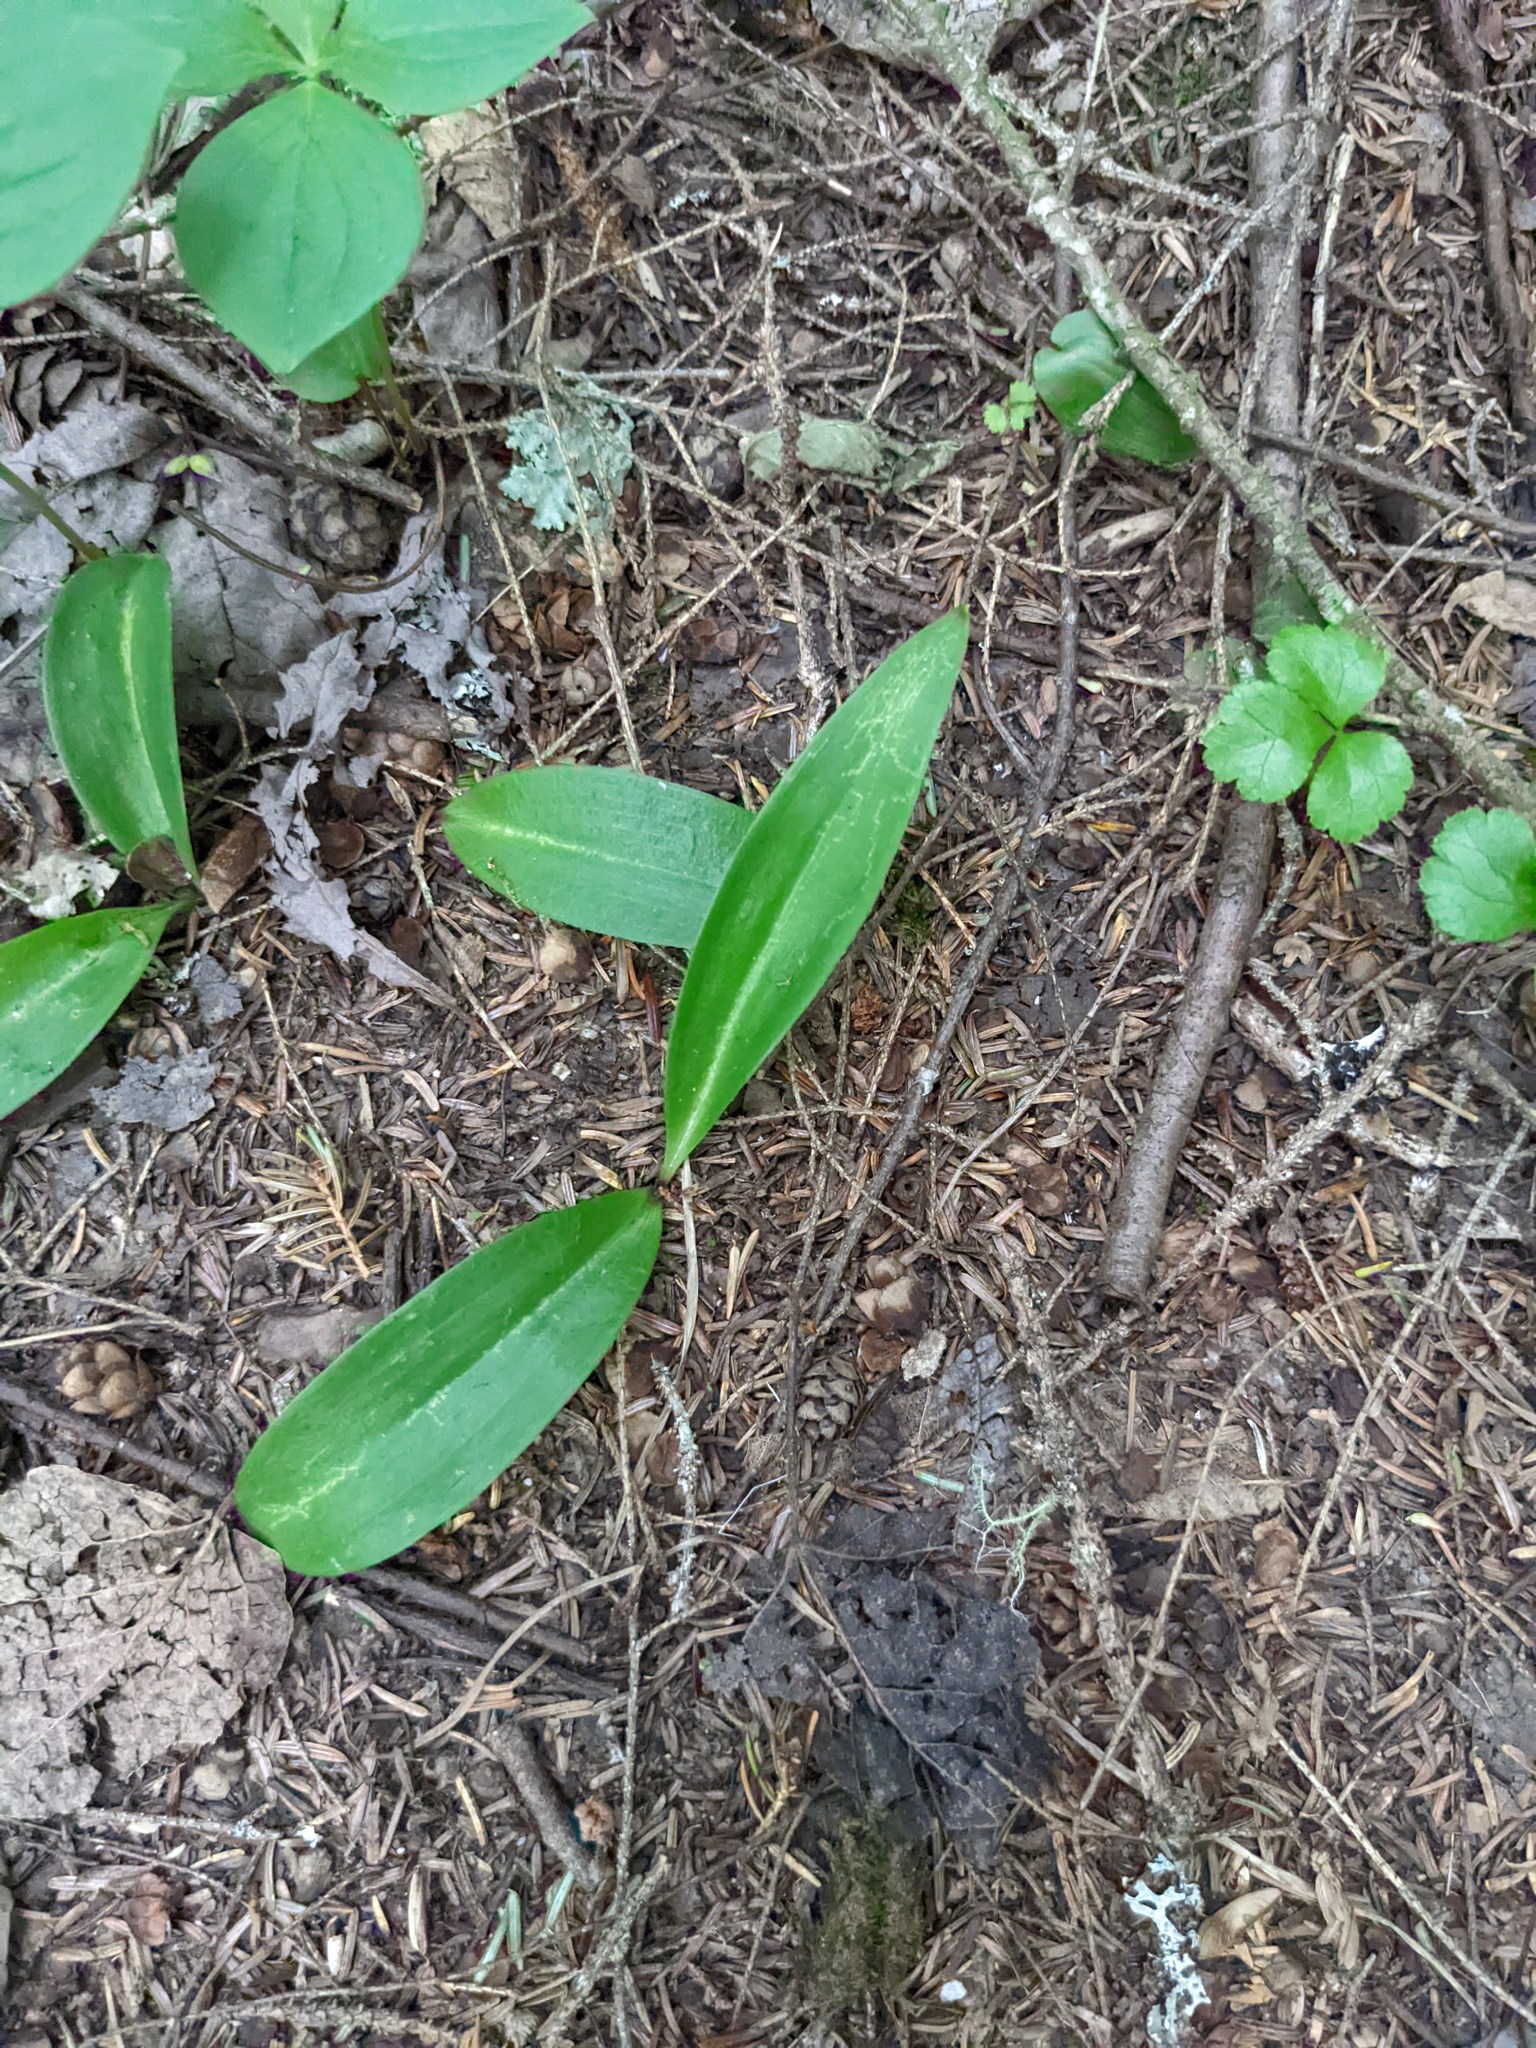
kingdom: Plantae
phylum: Tracheophyta
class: Liliopsida
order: Liliales
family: Liliaceae
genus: Clintonia
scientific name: Clintonia borealis
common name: Yellow clintonia
